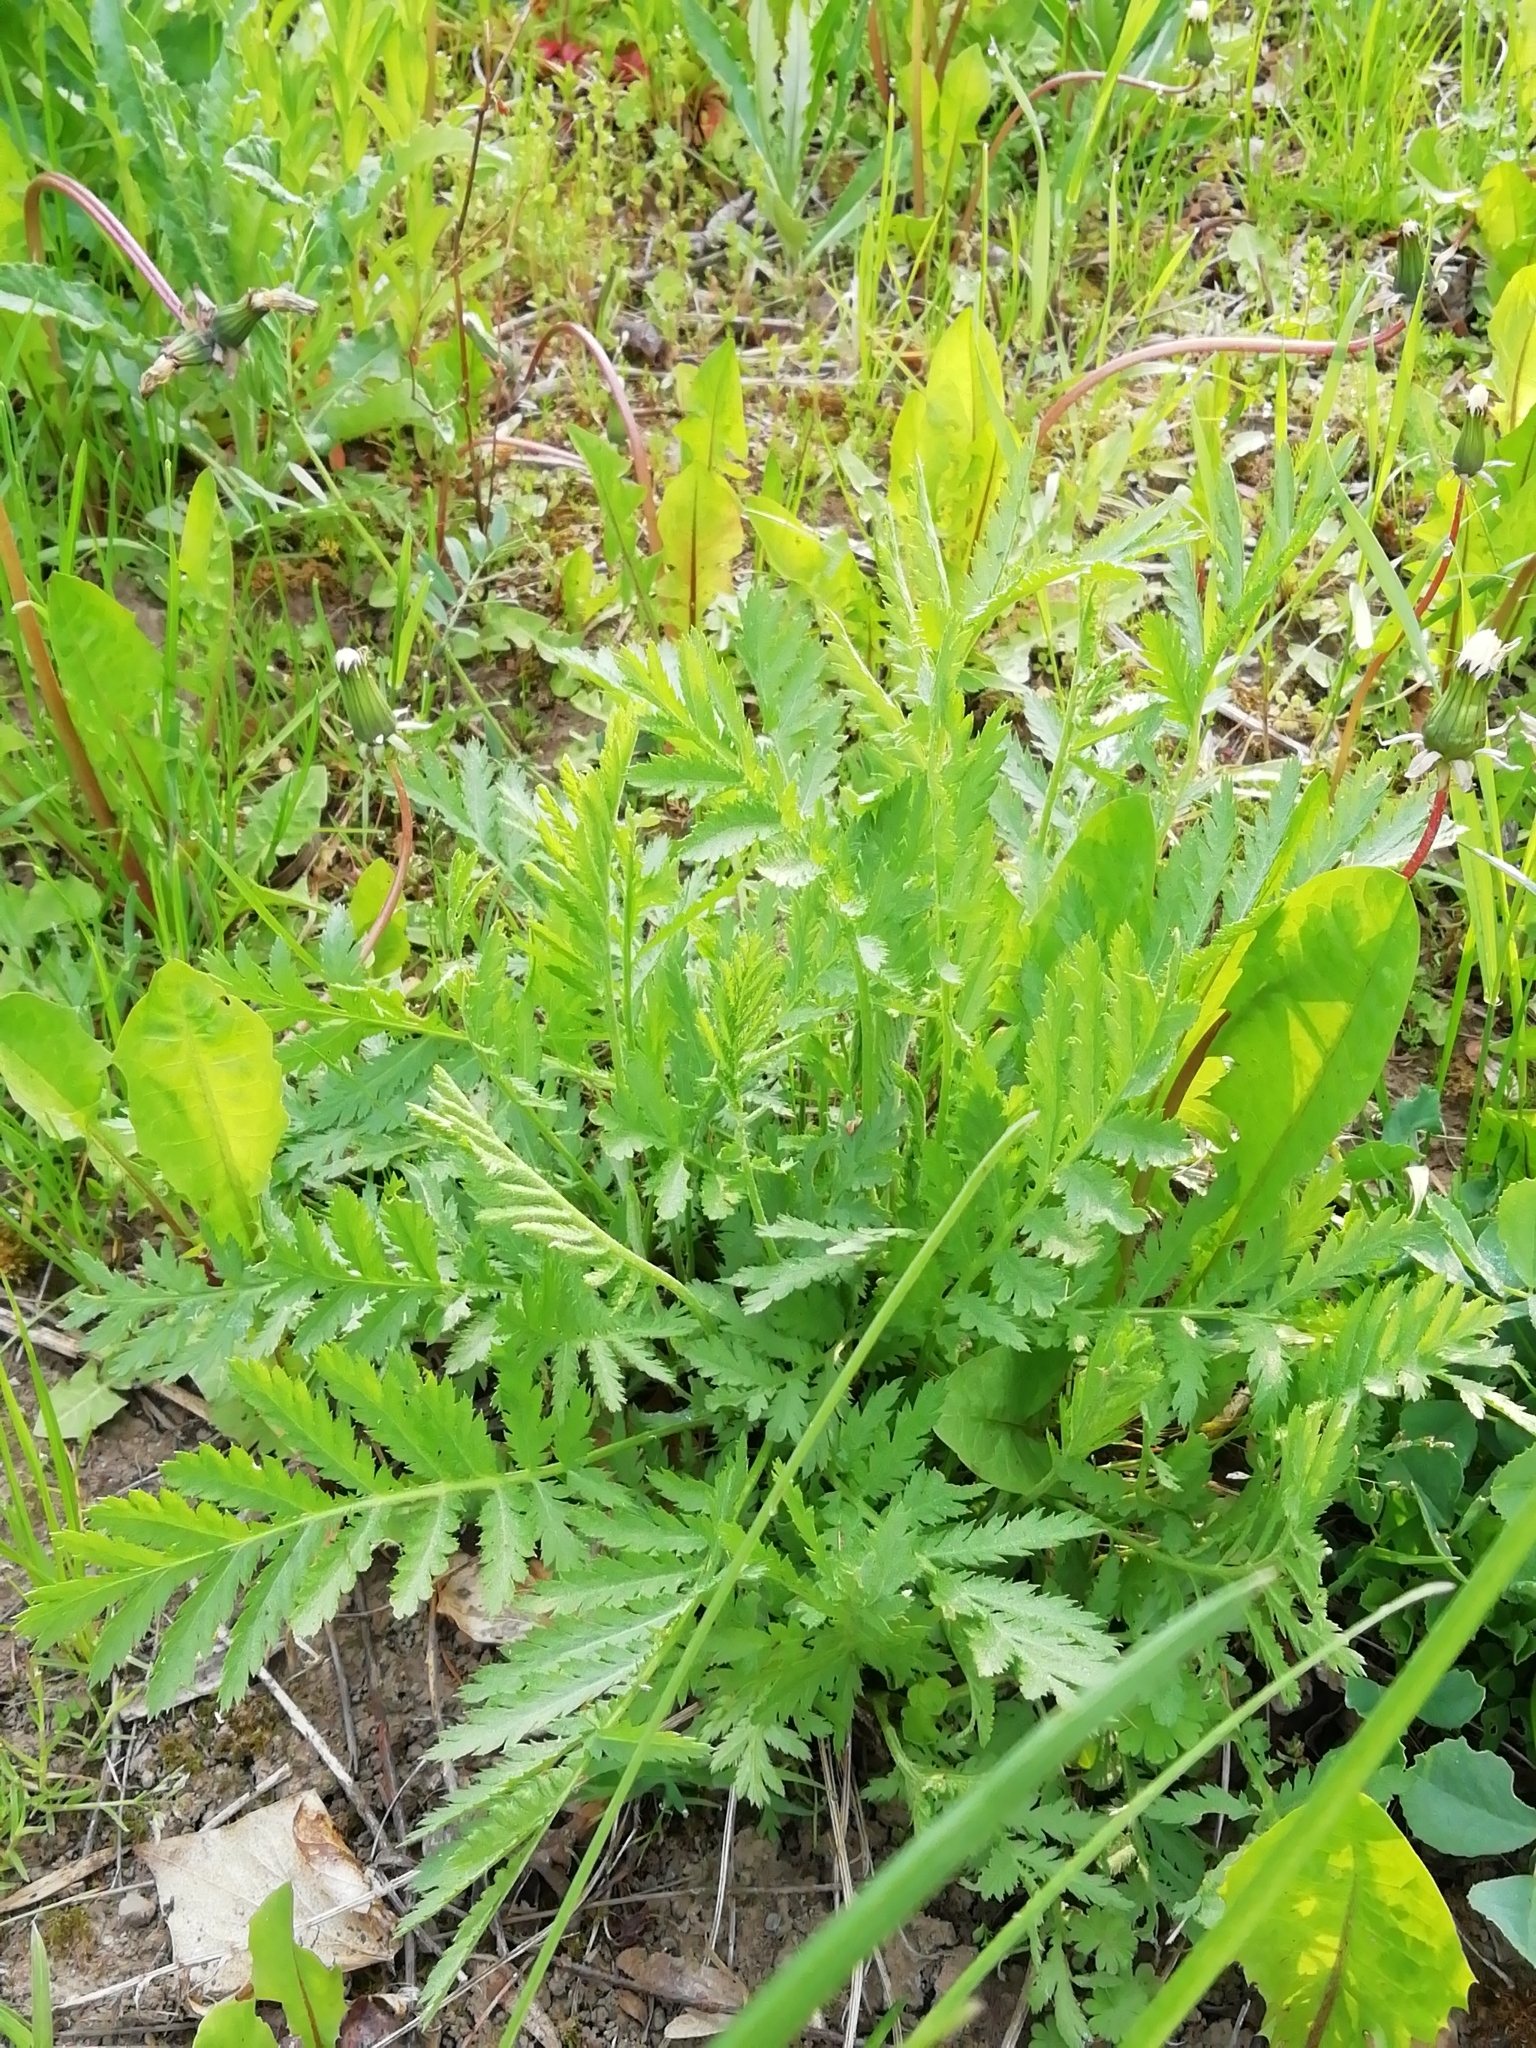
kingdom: Plantae
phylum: Tracheophyta
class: Magnoliopsida
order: Asterales
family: Asteraceae
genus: Tanacetum
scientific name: Tanacetum vulgare
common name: Common tansy
